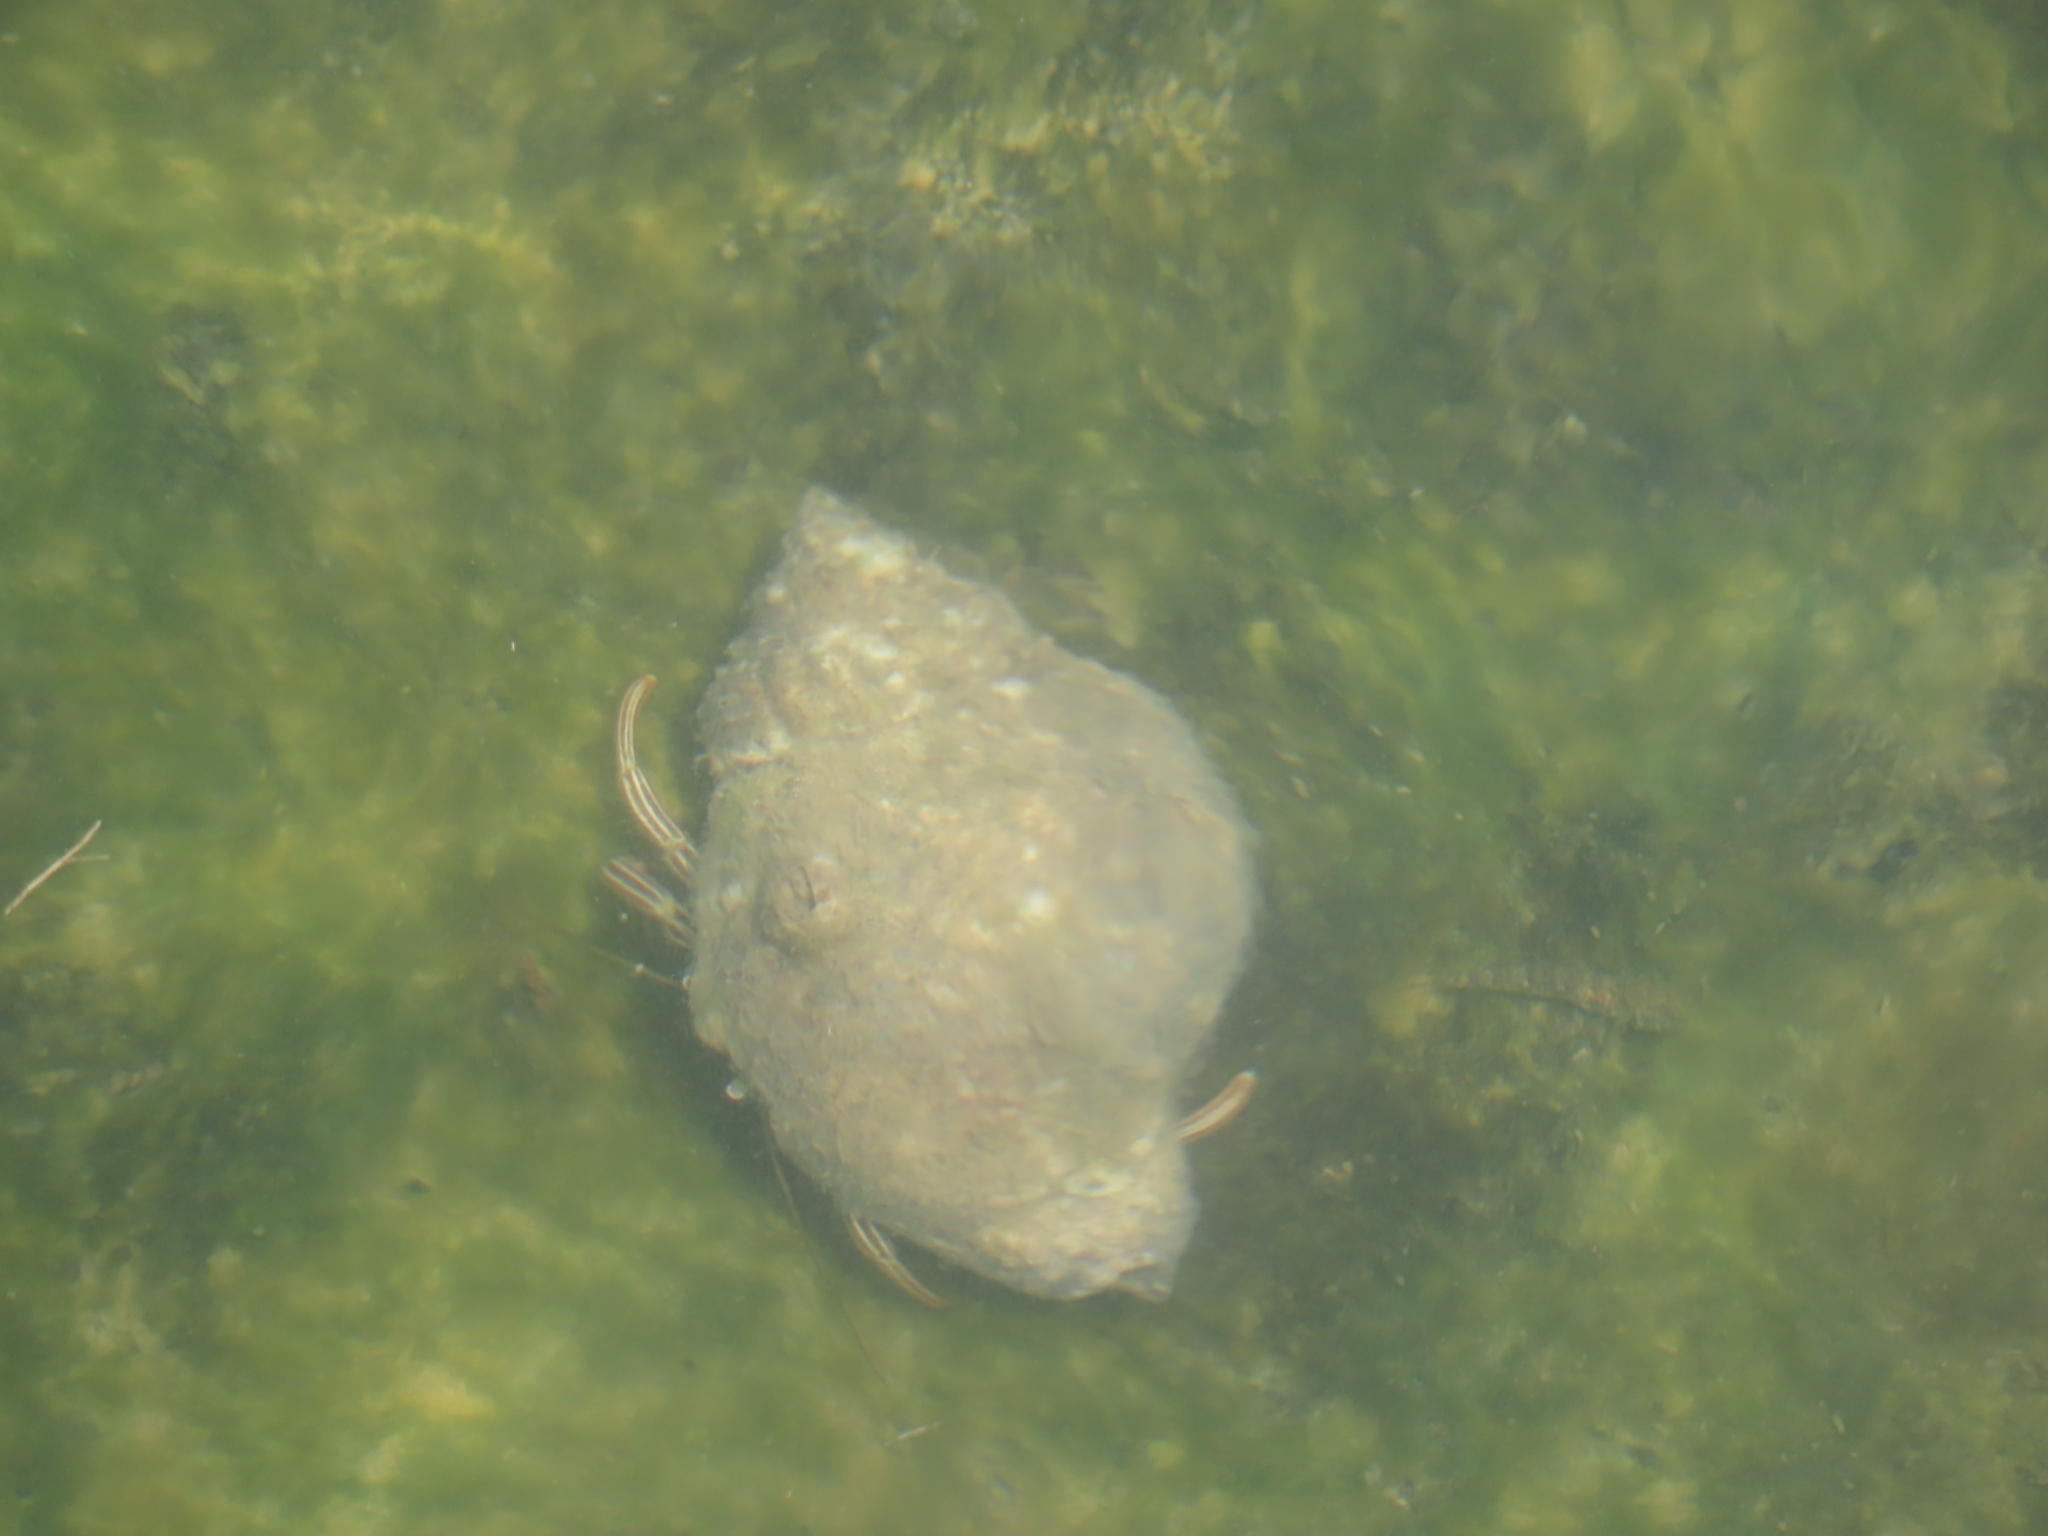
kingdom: Animalia
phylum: Arthropoda
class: Malacostraca
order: Decapoda
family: Diogenidae
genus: Clibanarius
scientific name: Clibanarius vittatus
